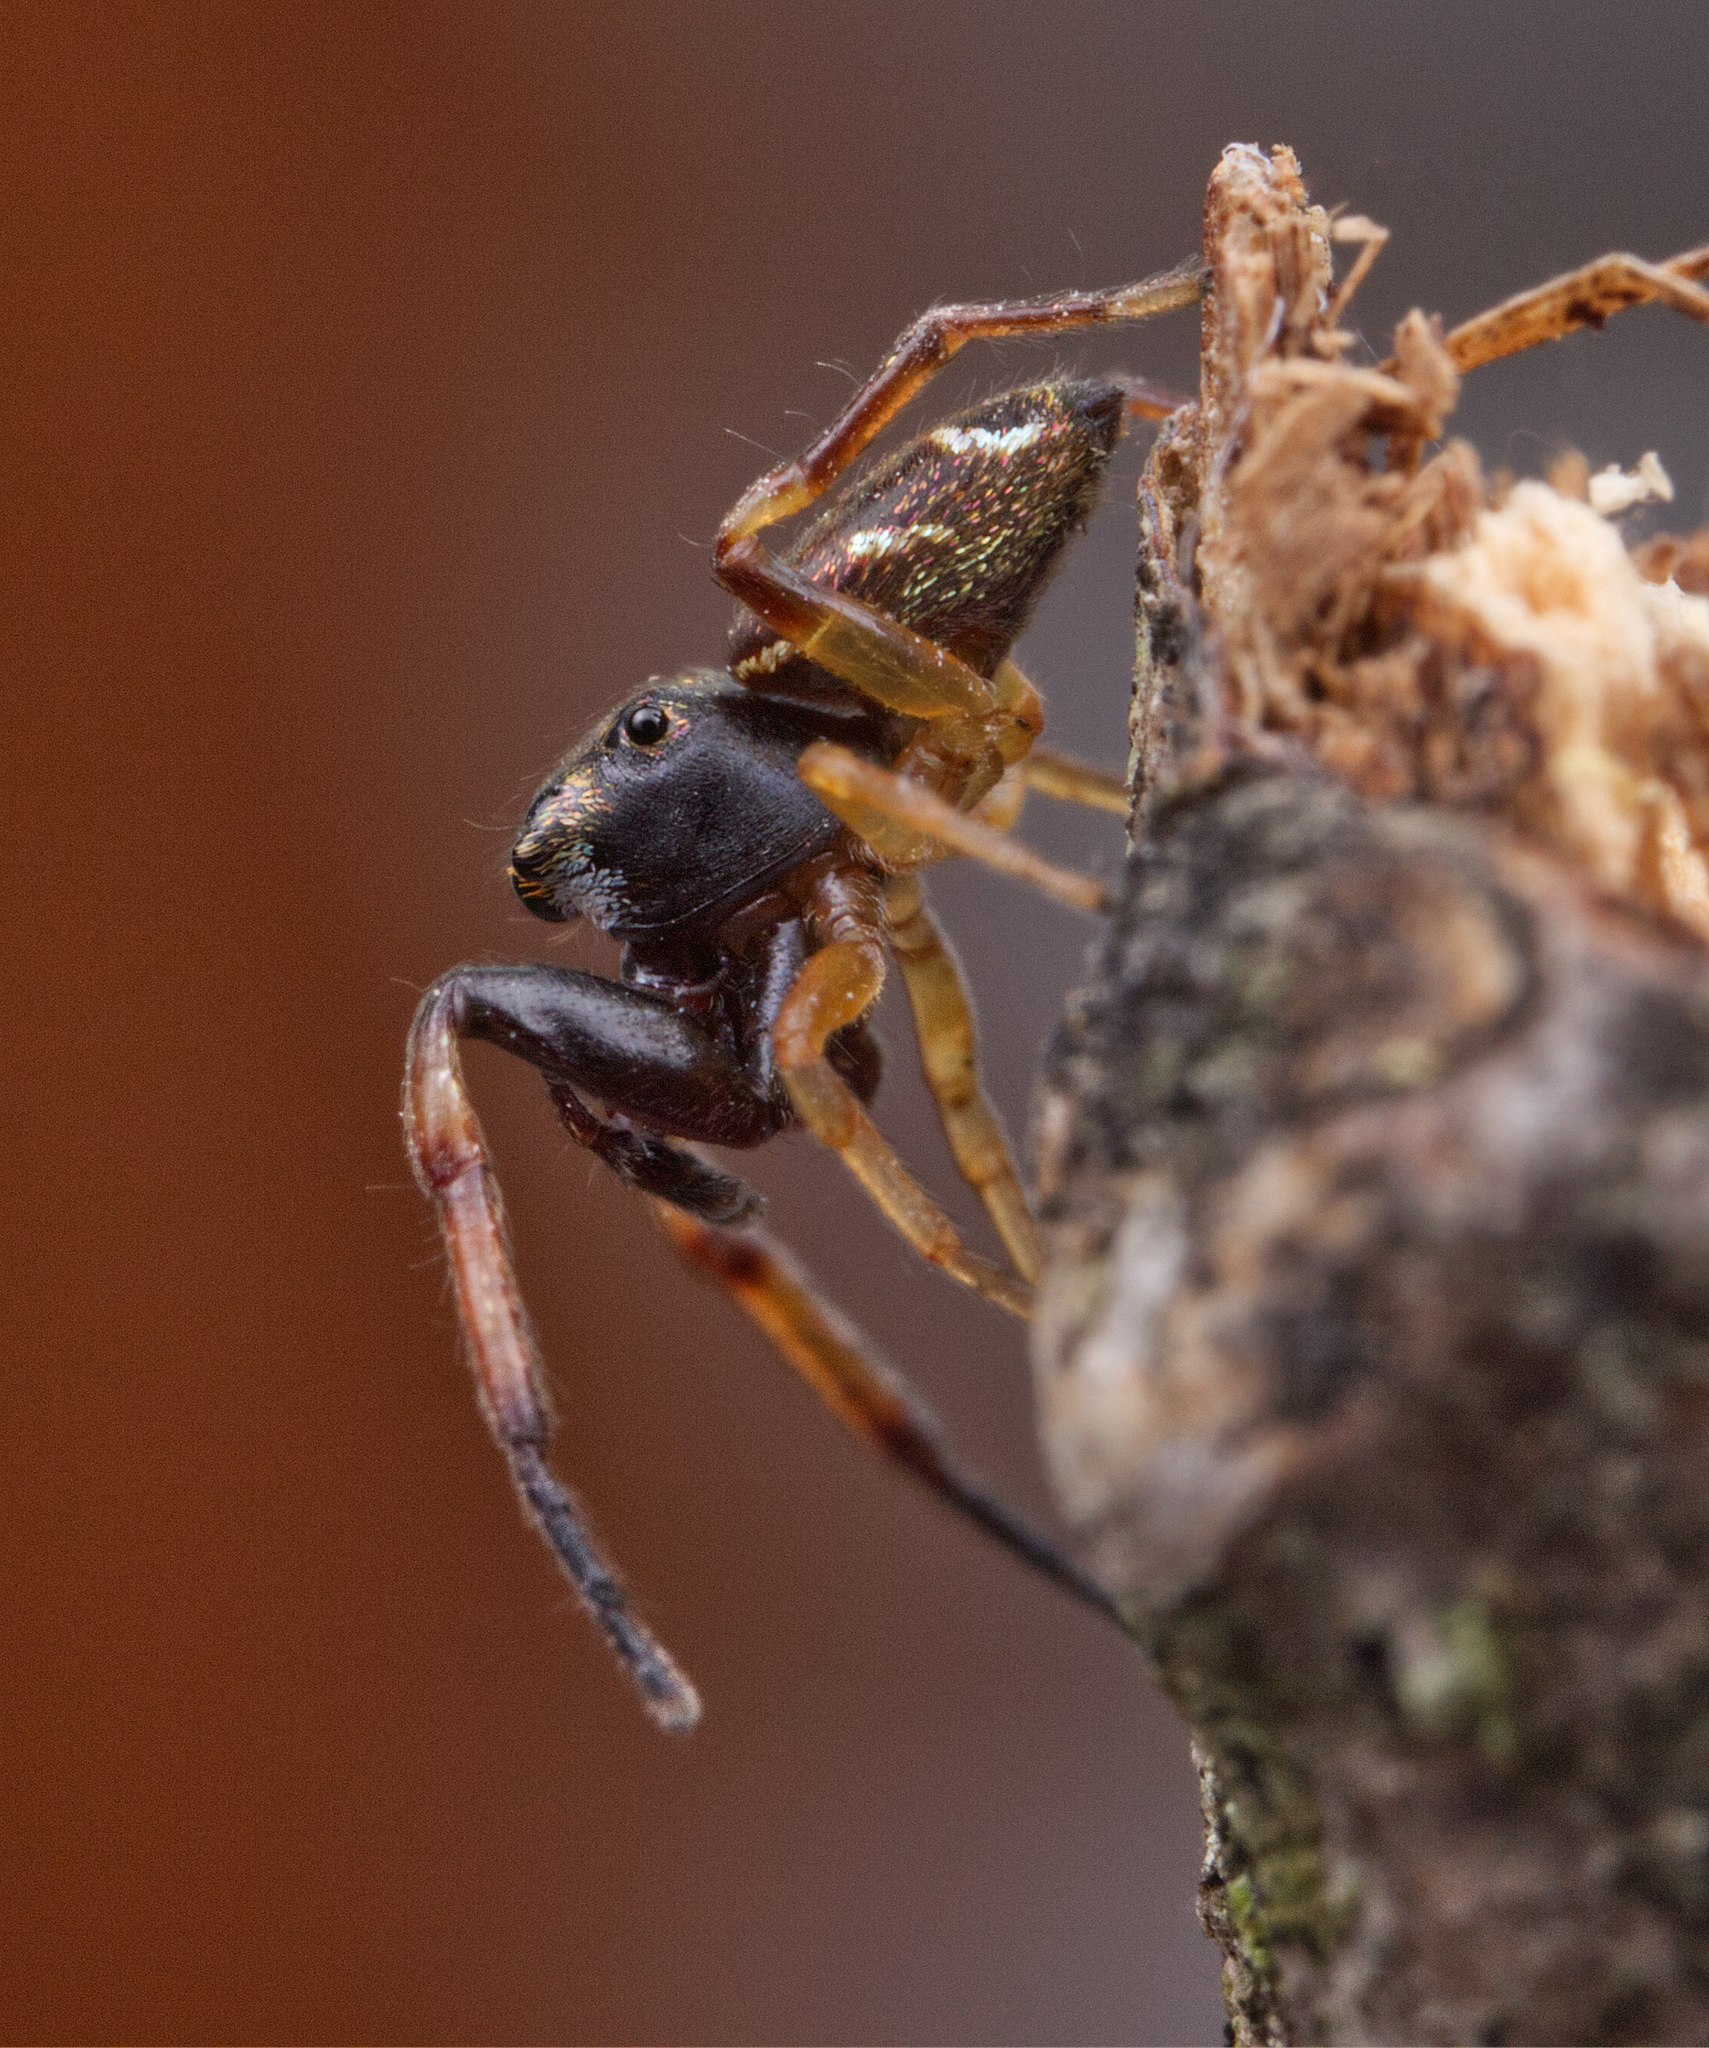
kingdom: Animalia
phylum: Arthropoda
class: Arachnida
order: Araneae
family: Salticidae
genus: Zygoballus
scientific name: Zygoballus rufipes
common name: Jumping spiders
